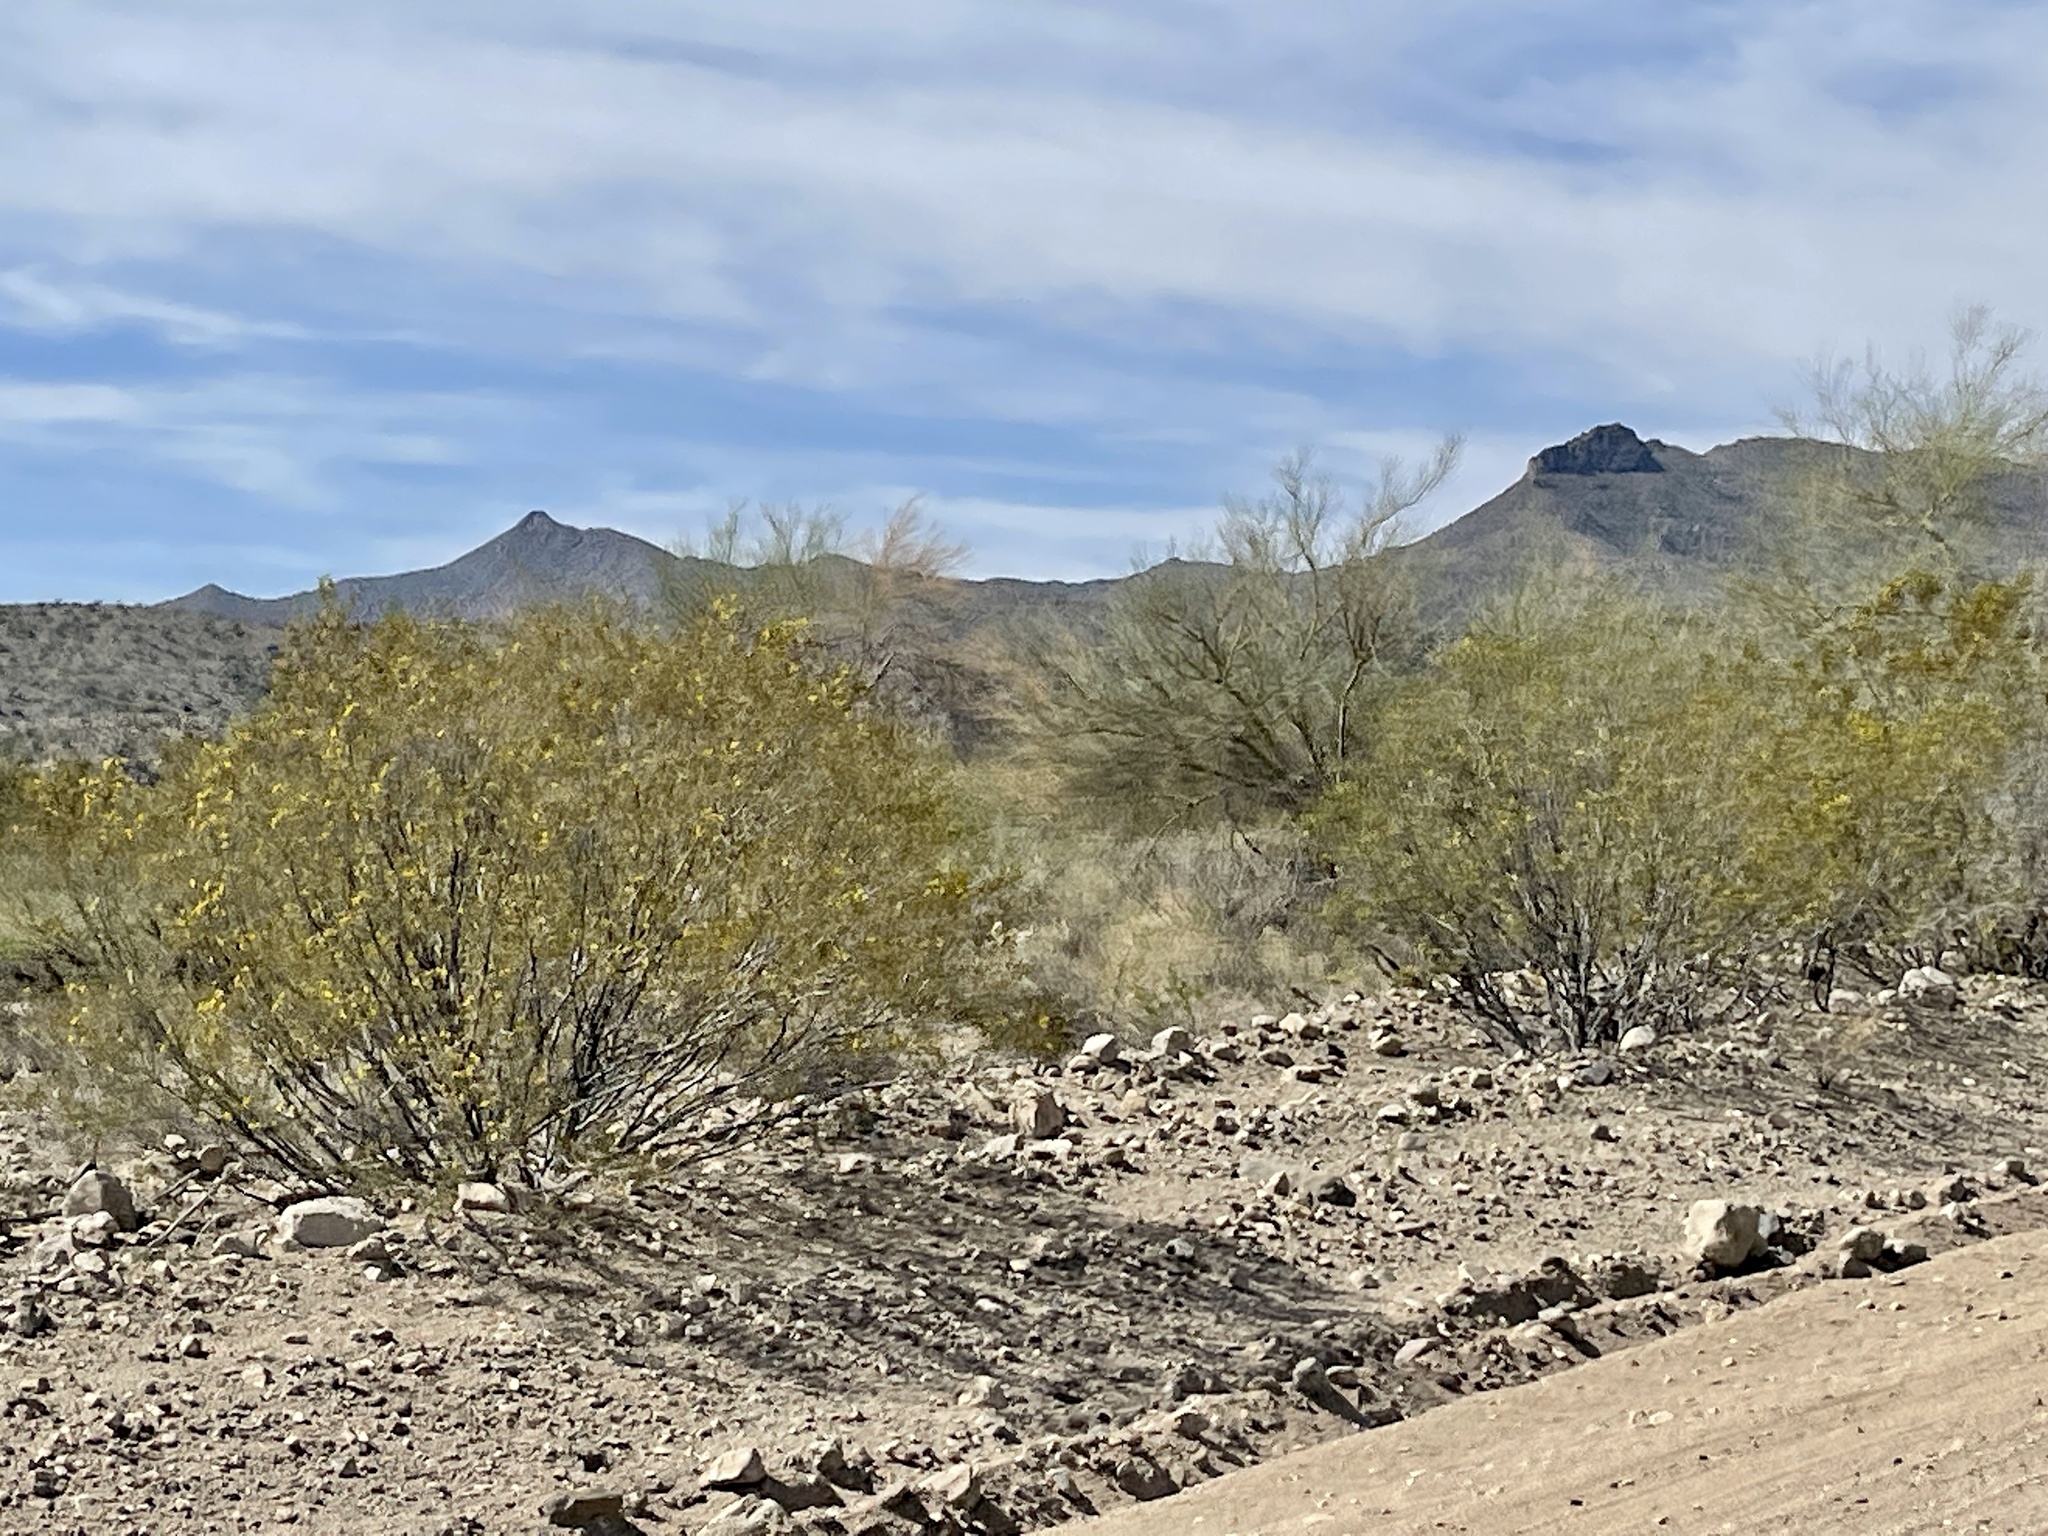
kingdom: Plantae
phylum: Tracheophyta
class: Magnoliopsida
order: Zygophyllales
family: Zygophyllaceae
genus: Larrea
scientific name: Larrea tridentata
